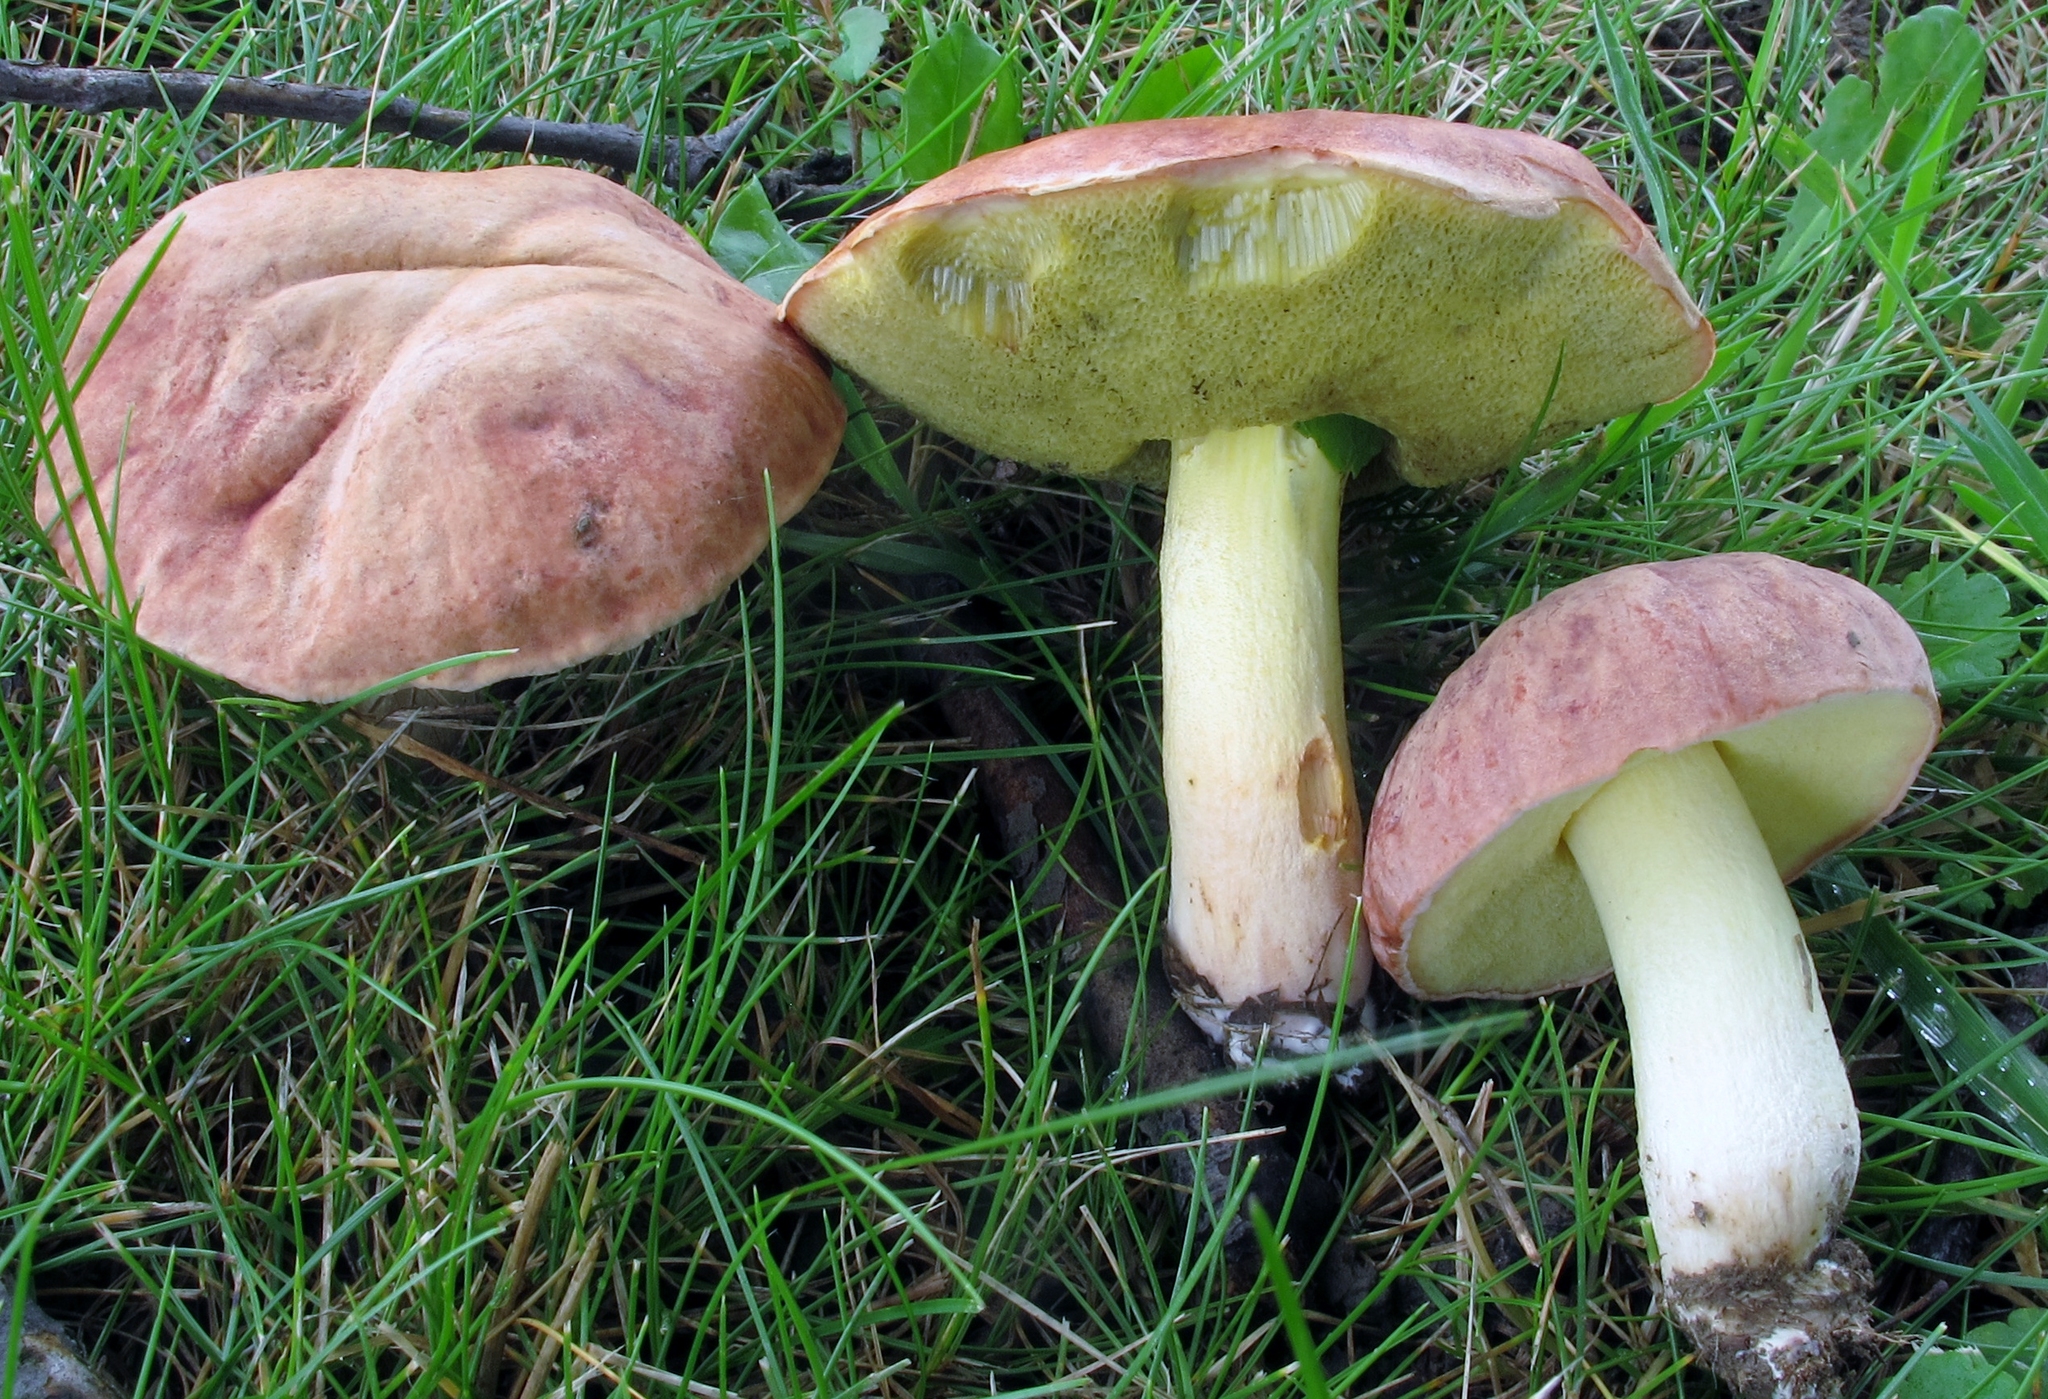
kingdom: Fungi
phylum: Basidiomycota
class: Agaricomycetes
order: Boletales
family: Boletaceae
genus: Hemileccinum
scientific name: Hemileccinum subglabripes
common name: Smoothish-stemmed bolete
